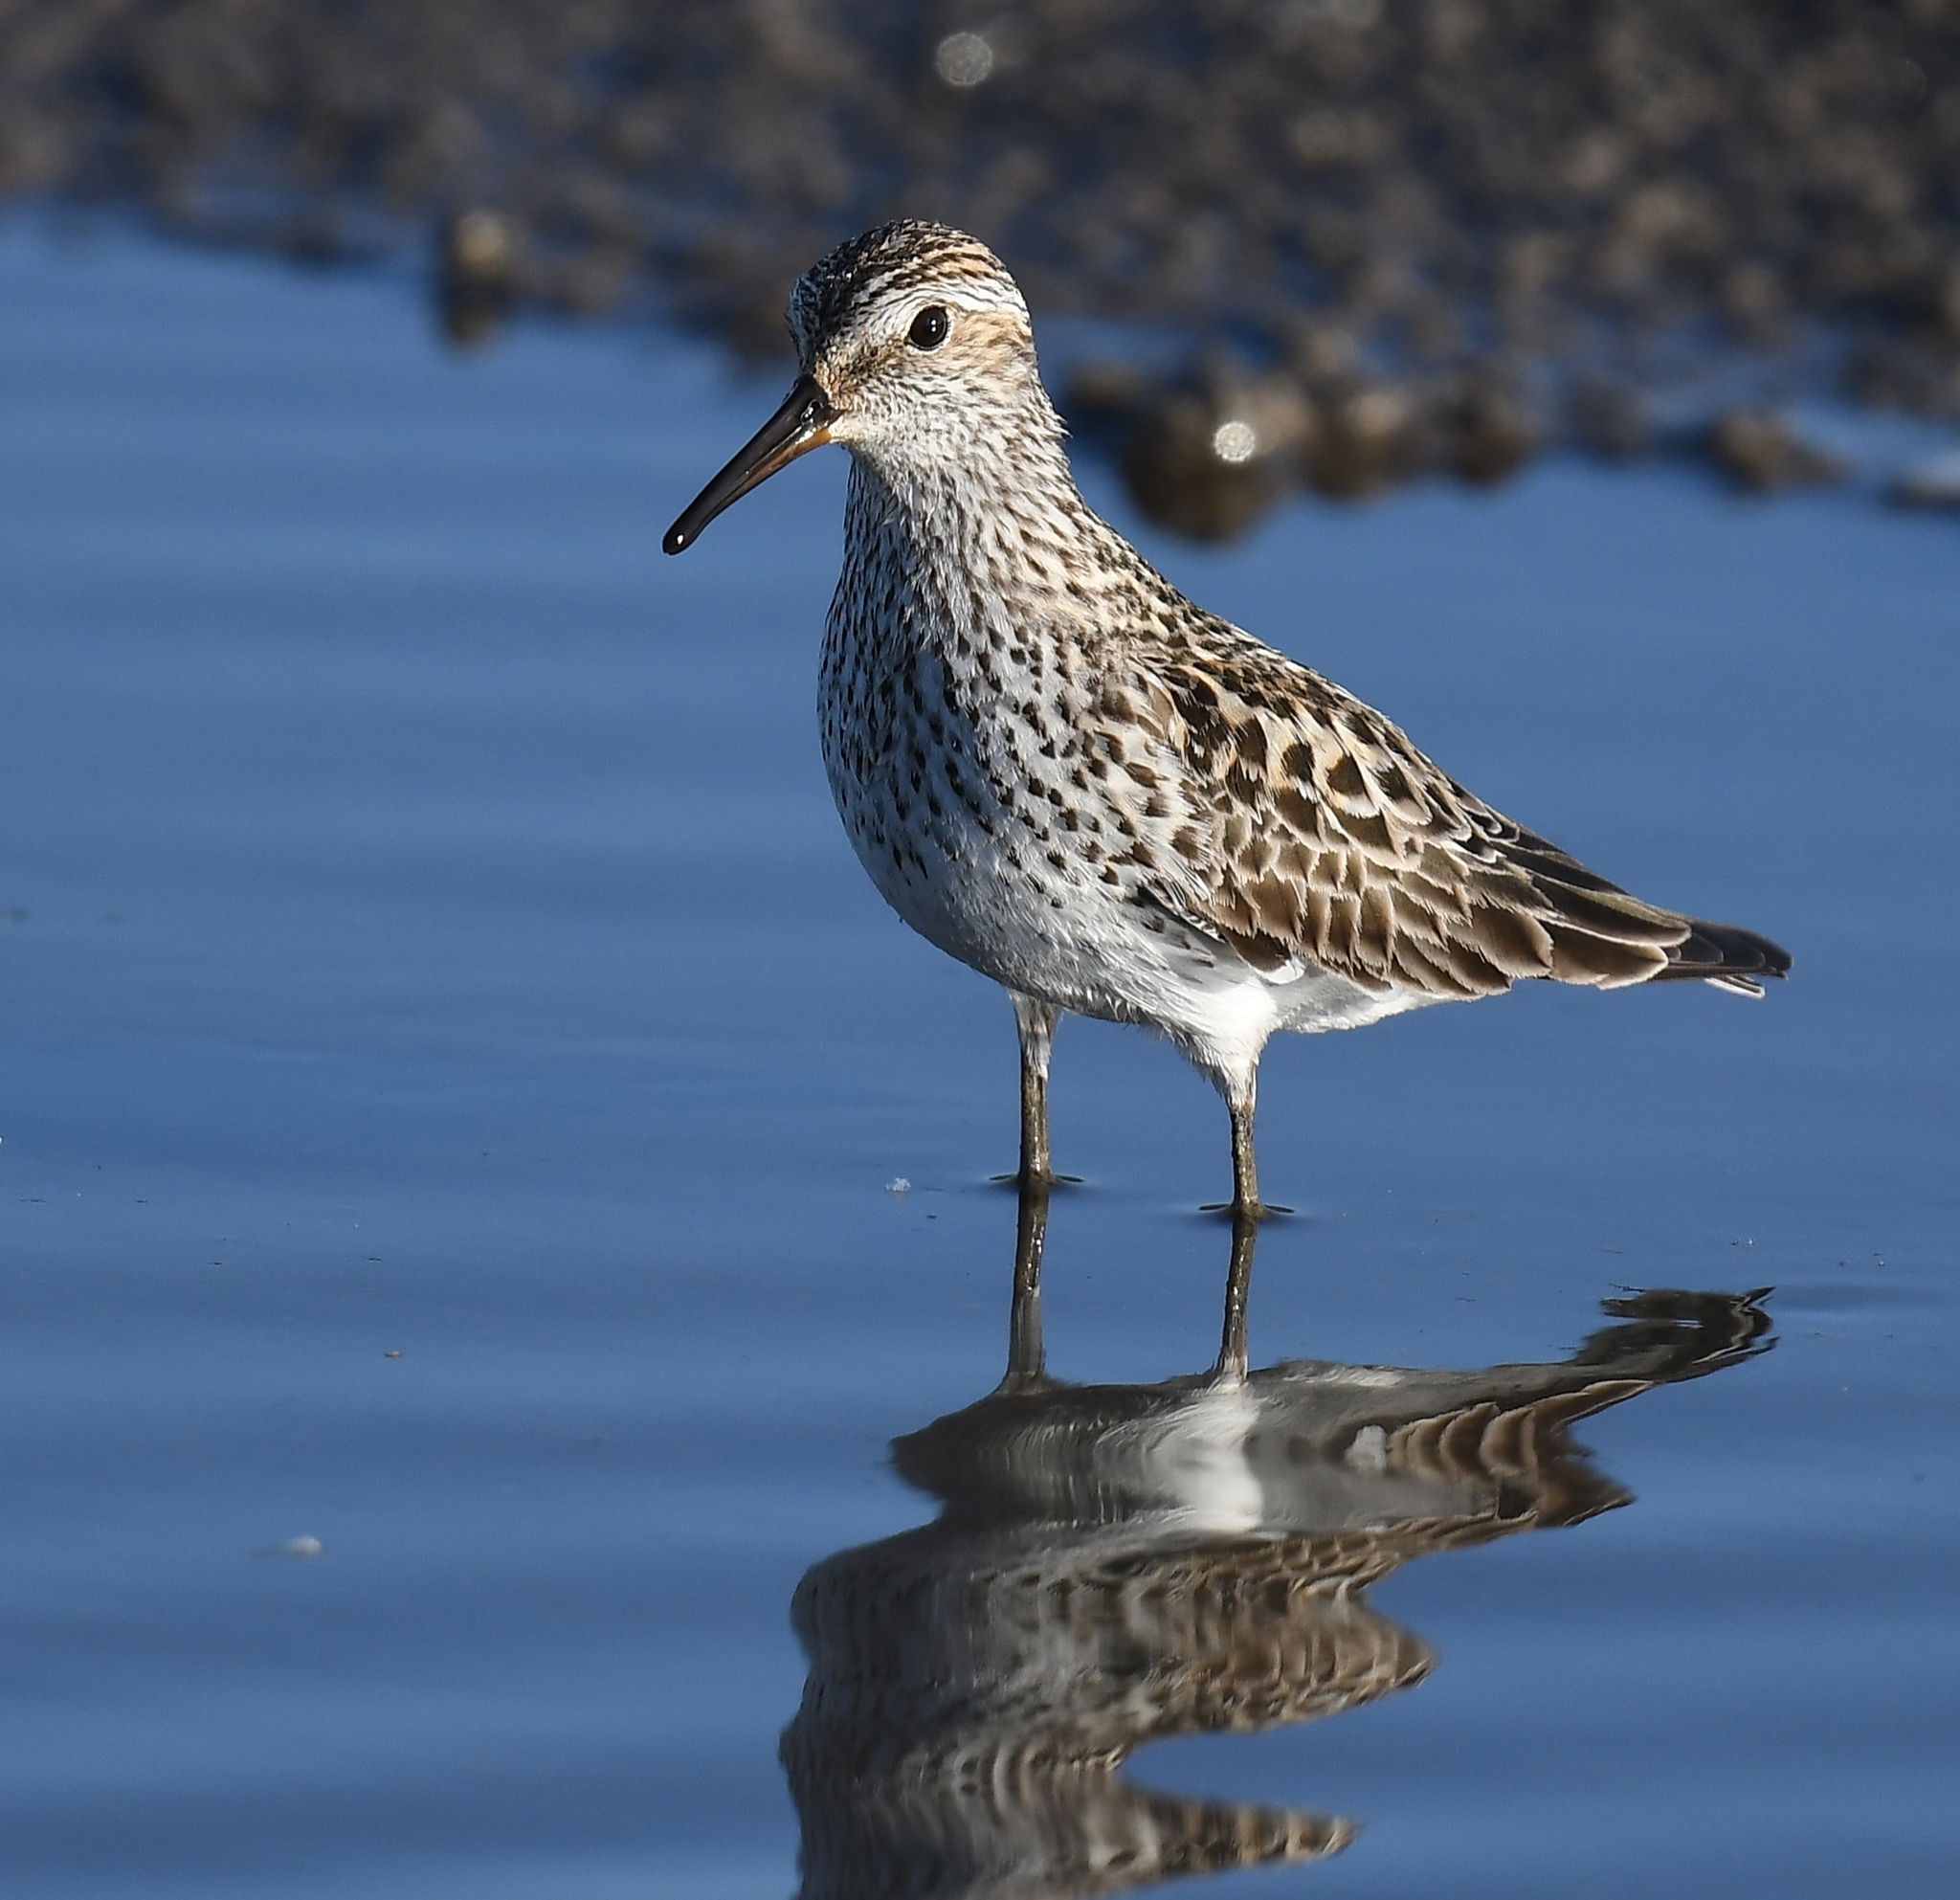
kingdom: Animalia
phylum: Chordata
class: Aves
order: Charadriiformes
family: Scolopacidae
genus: Calidris
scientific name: Calidris fuscicollis
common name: White-rumped sandpiper
